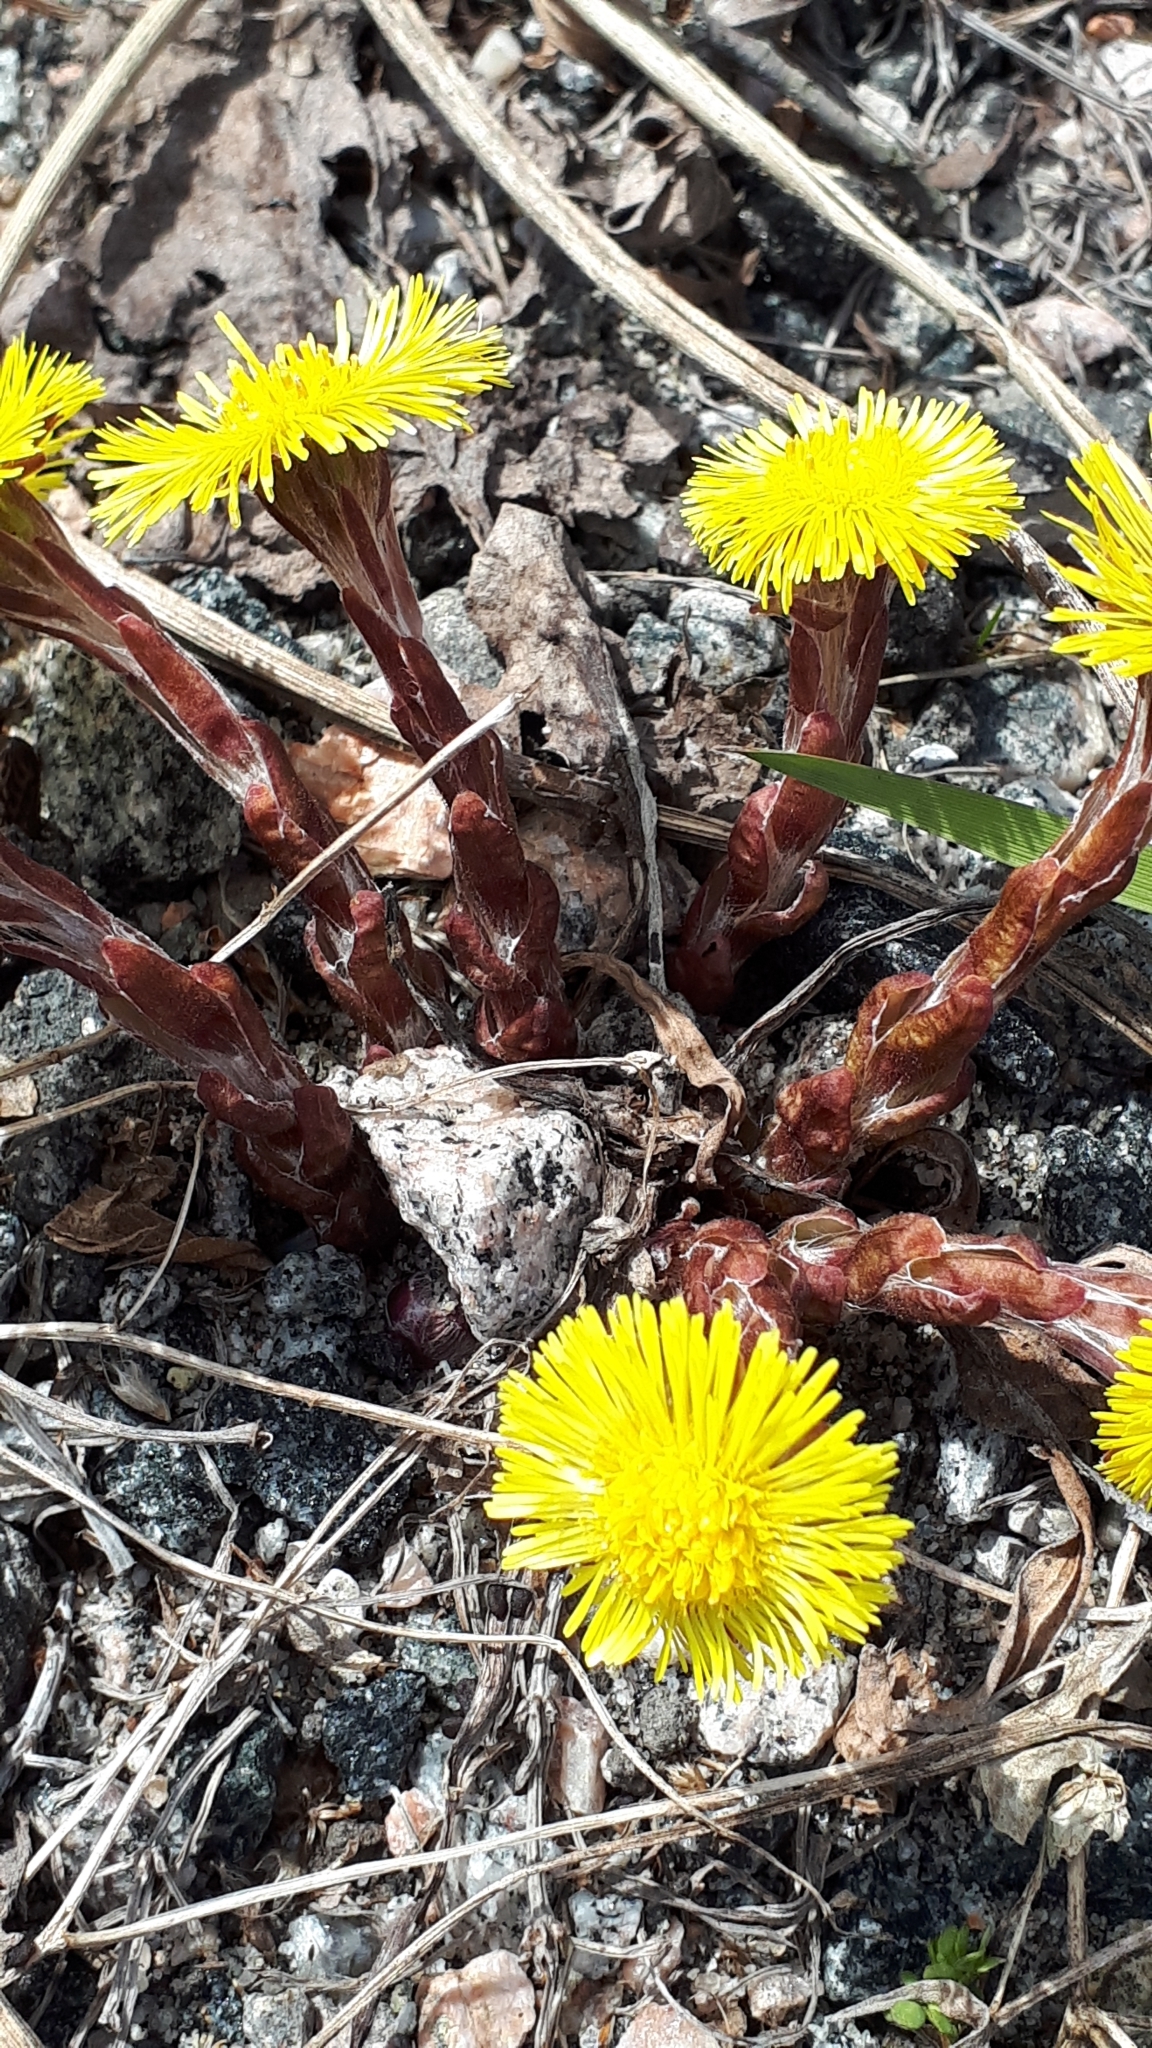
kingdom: Plantae
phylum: Tracheophyta
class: Magnoliopsida
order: Asterales
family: Asteraceae
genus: Tussilago
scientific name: Tussilago farfara
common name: Coltsfoot
